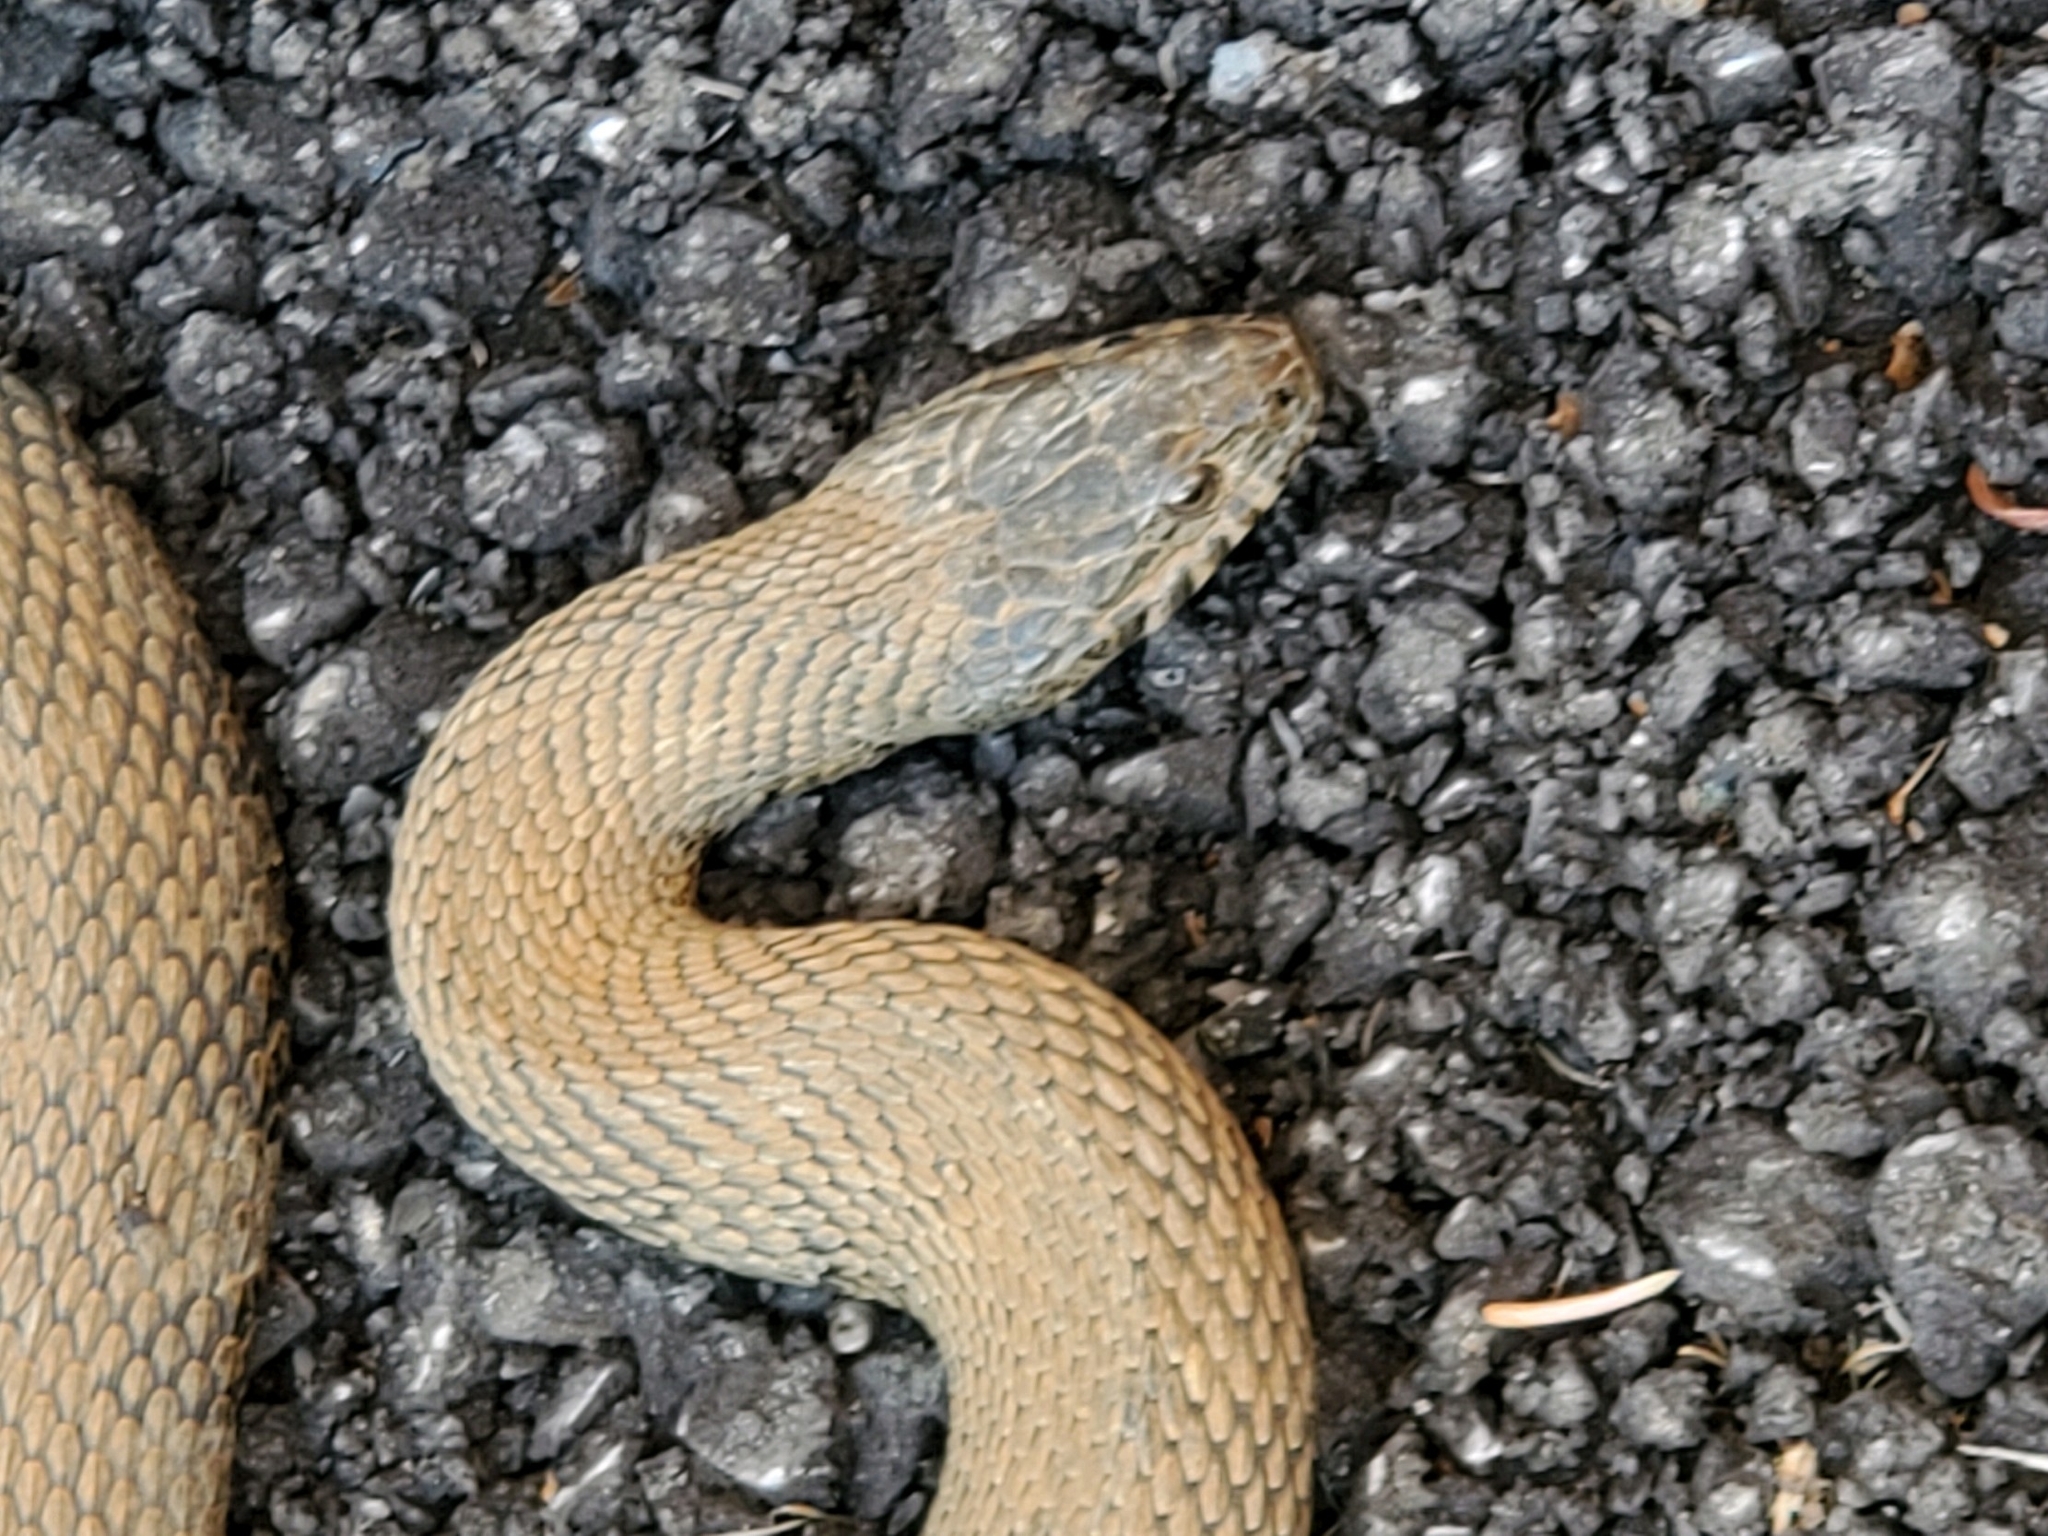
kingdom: Animalia
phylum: Chordata
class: Squamata
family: Colubridae
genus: Nerodia
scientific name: Nerodia sipedon
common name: Northern water snake
